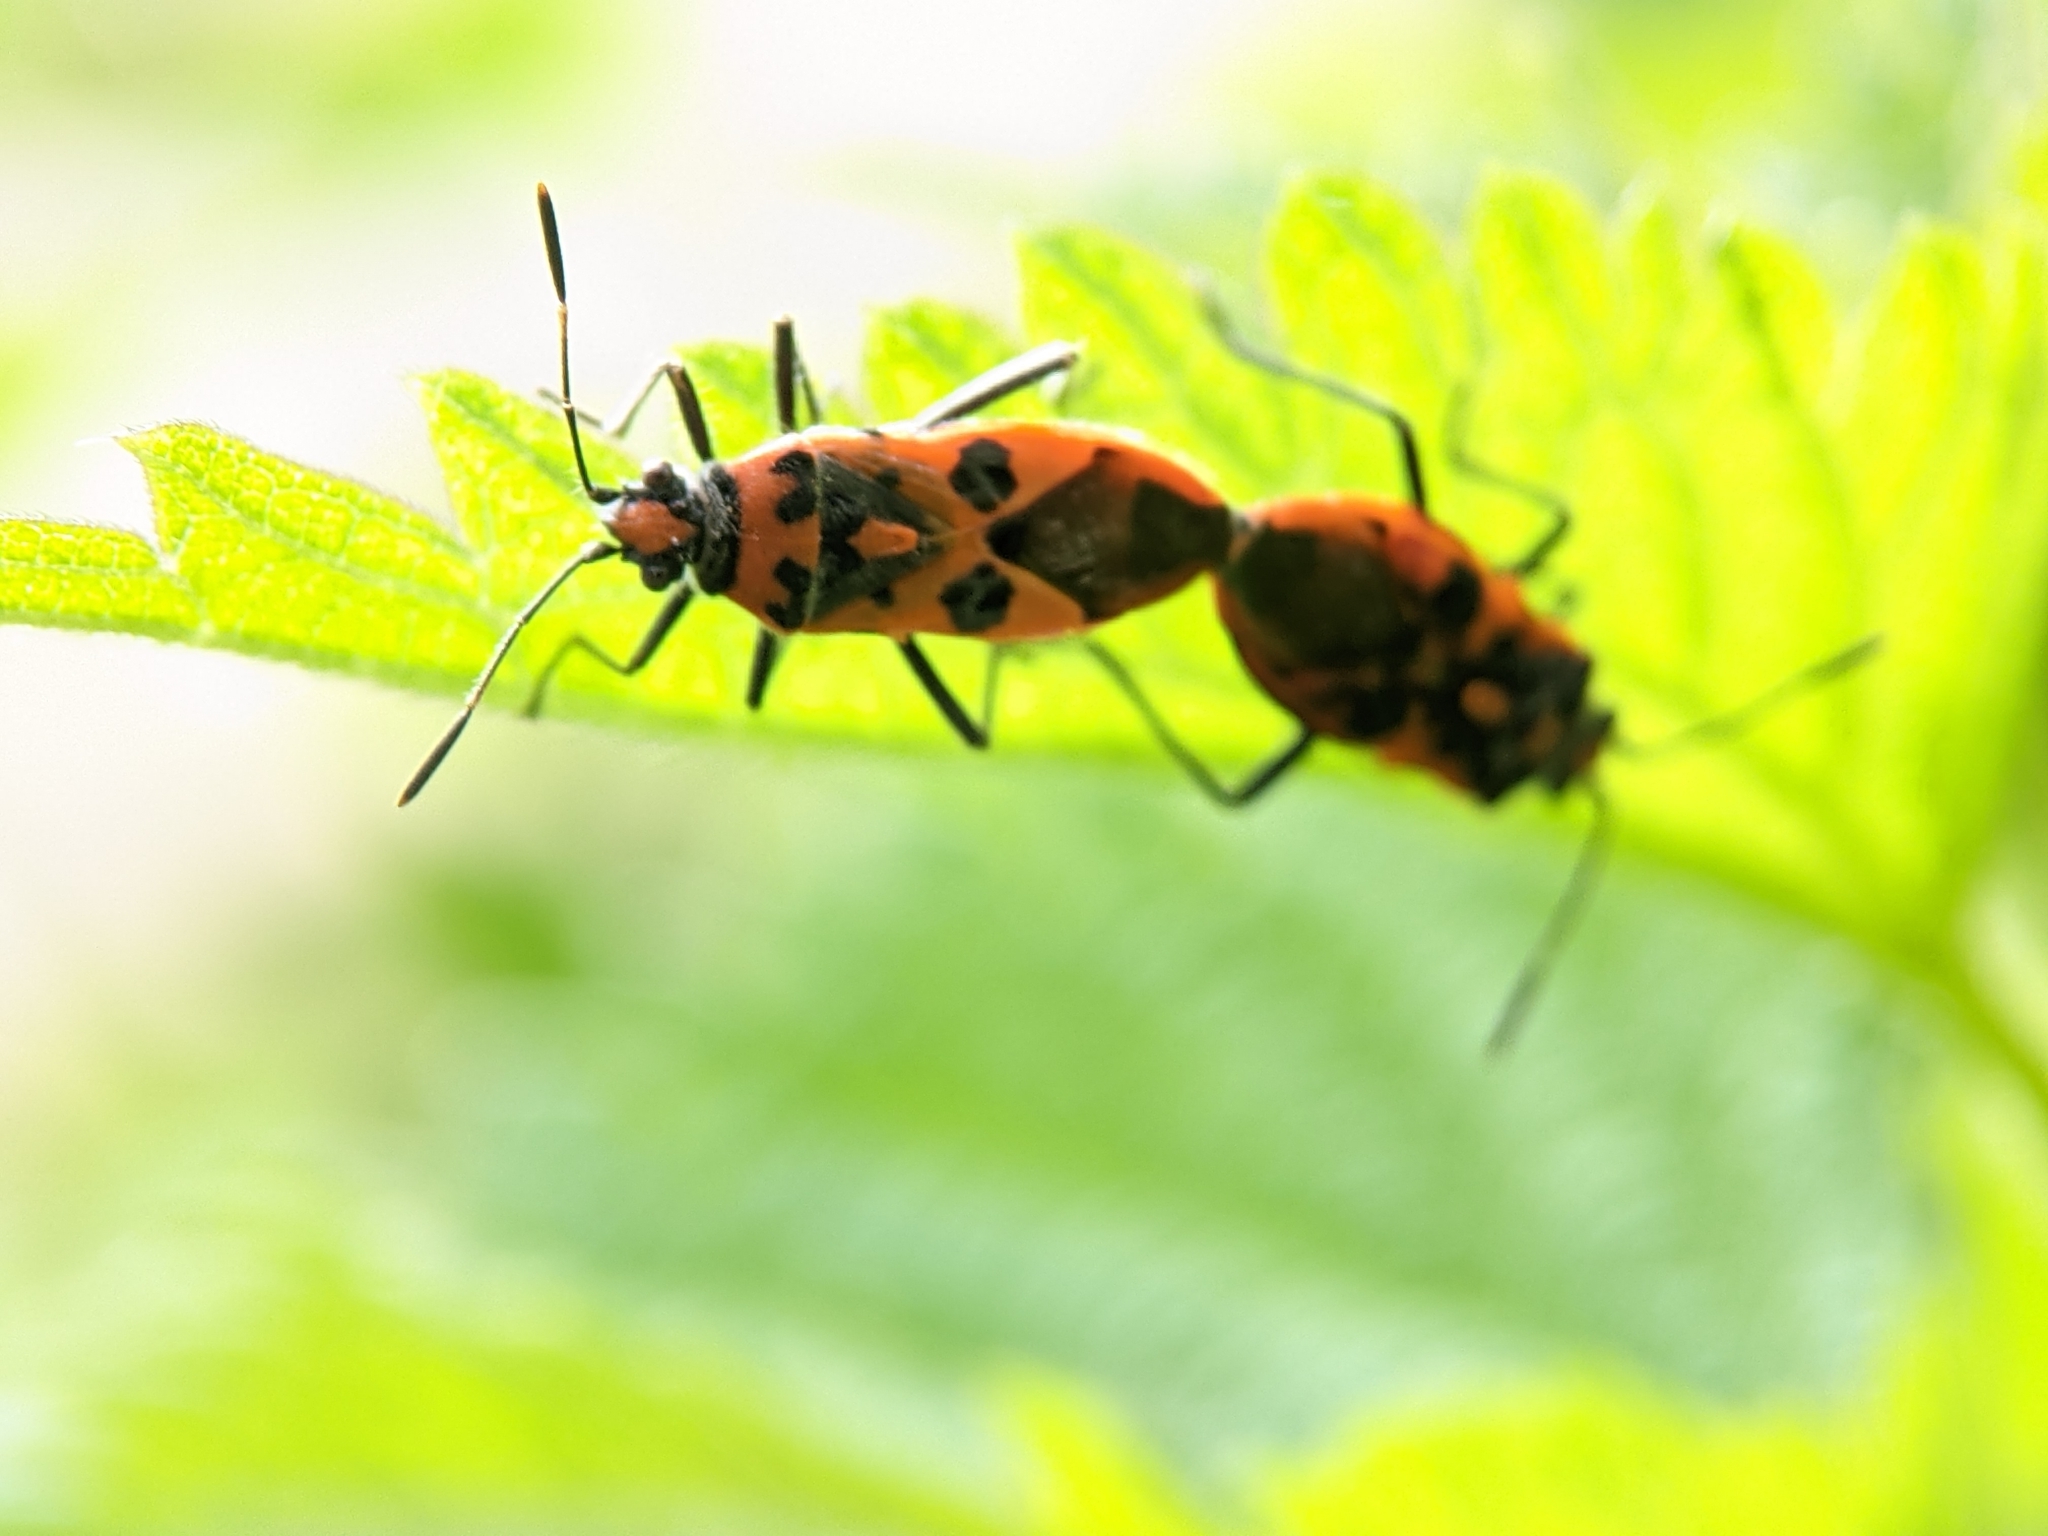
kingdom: Animalia
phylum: Arthropoda
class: Insecta
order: Hemiptera
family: Rhopalidae
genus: Corizus
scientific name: Corizus hyoscyami
